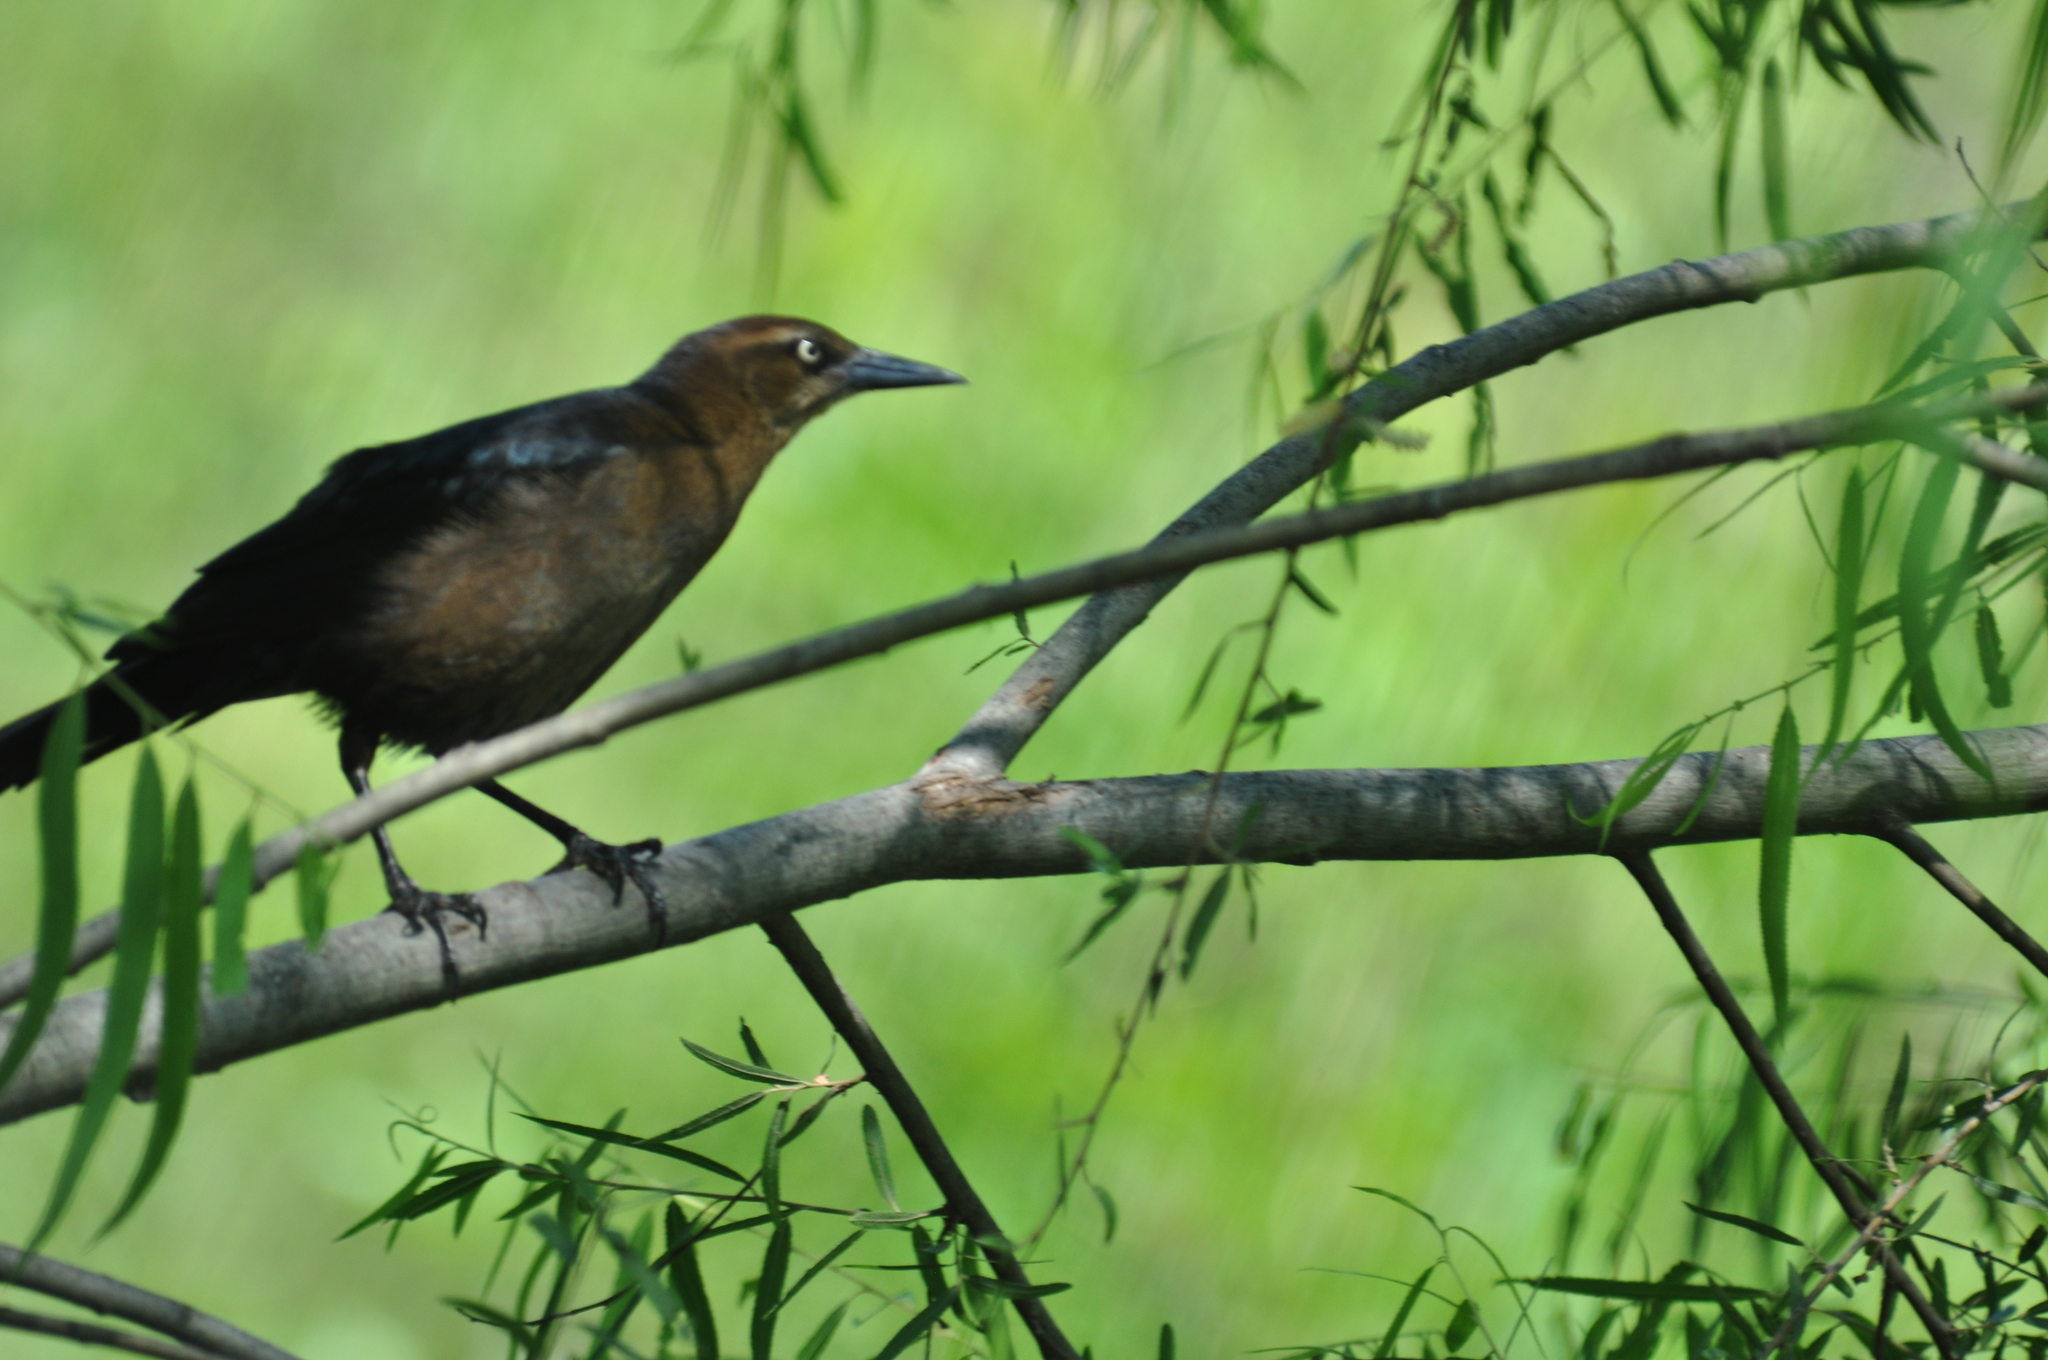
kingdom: Animalia
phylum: Chordata
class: Aves
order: Passeriformes
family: Icteridae
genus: Quiscalus
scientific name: Quiscalus mexicanus
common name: Great-tailed grackle
